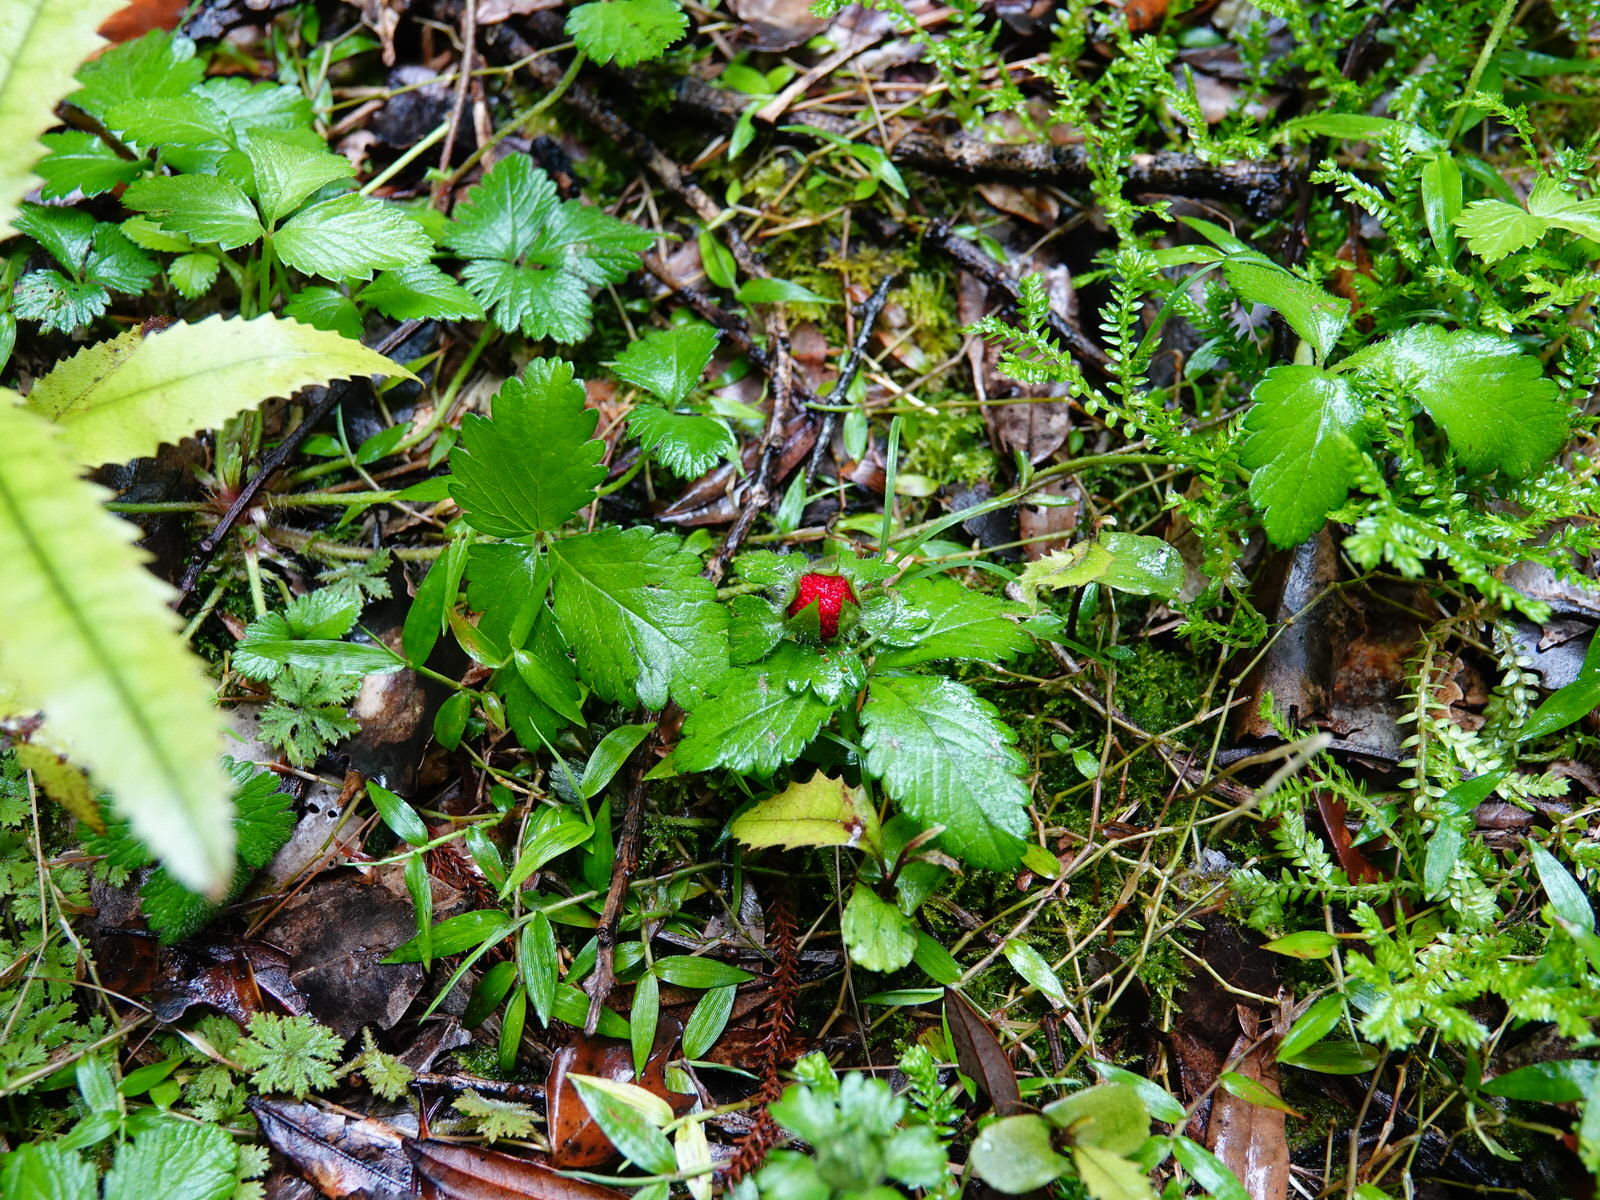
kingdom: Plantae
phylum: Tracheophyta
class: Magnoliopsida
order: Rosales
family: Rosaceae
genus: Potentilla
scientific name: Potentilla indica
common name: Yellow-flowered strawberry
